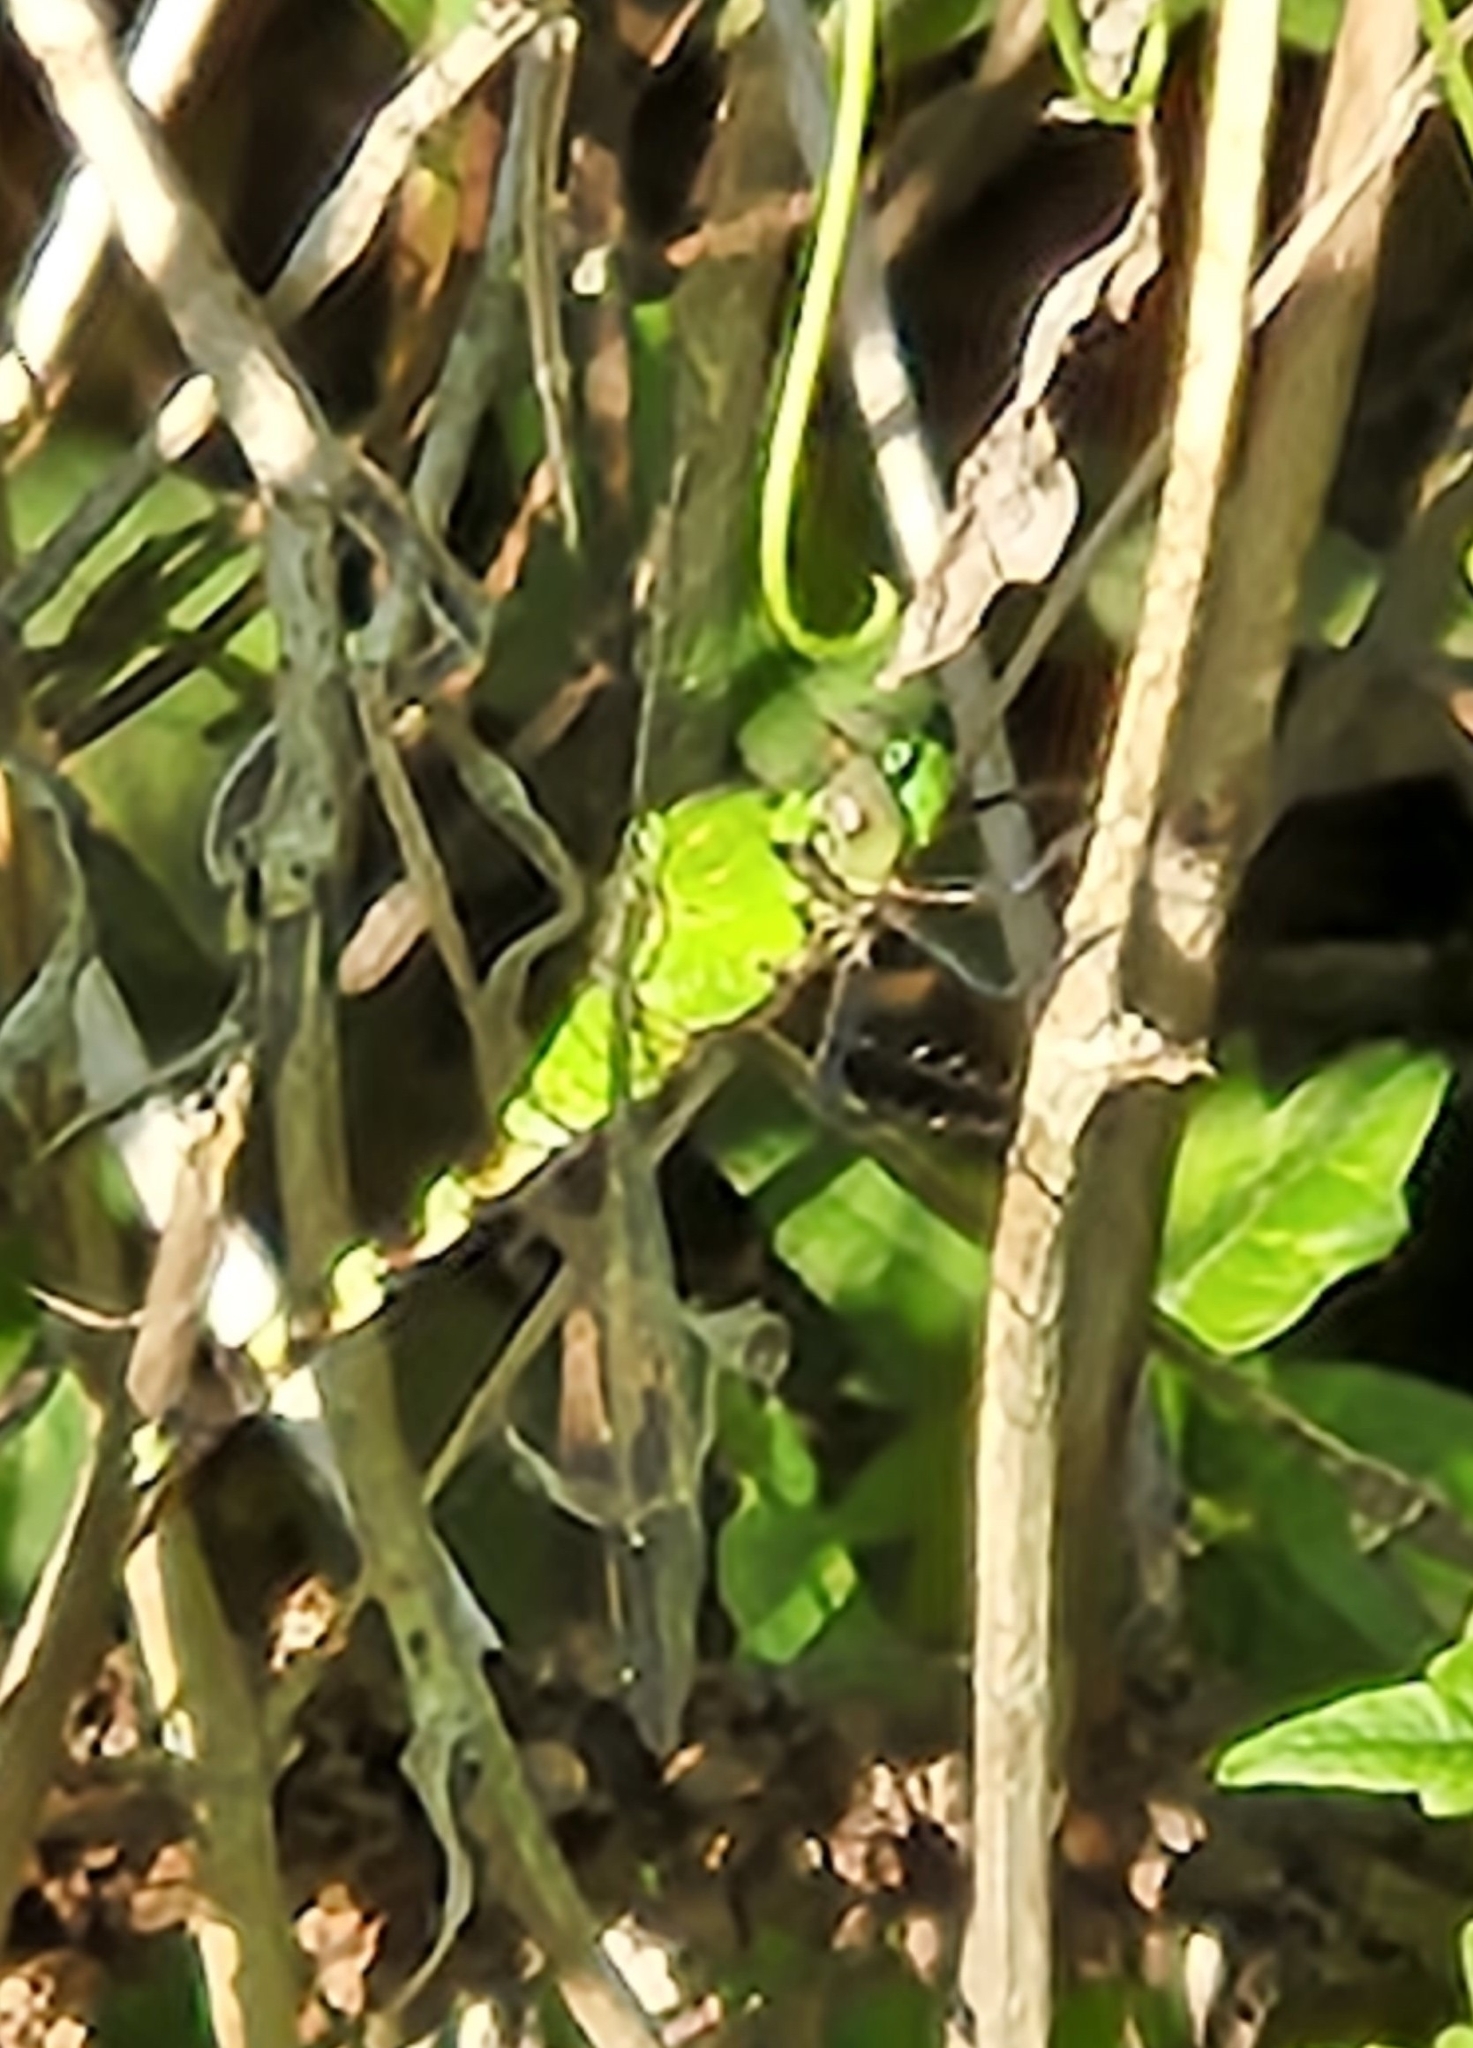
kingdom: Animalia
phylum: Arthropoda
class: Insecta
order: Odonata
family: Libellulidae
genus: Erythemis
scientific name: Erythemis simplicicollis
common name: Eastern pondhawk
